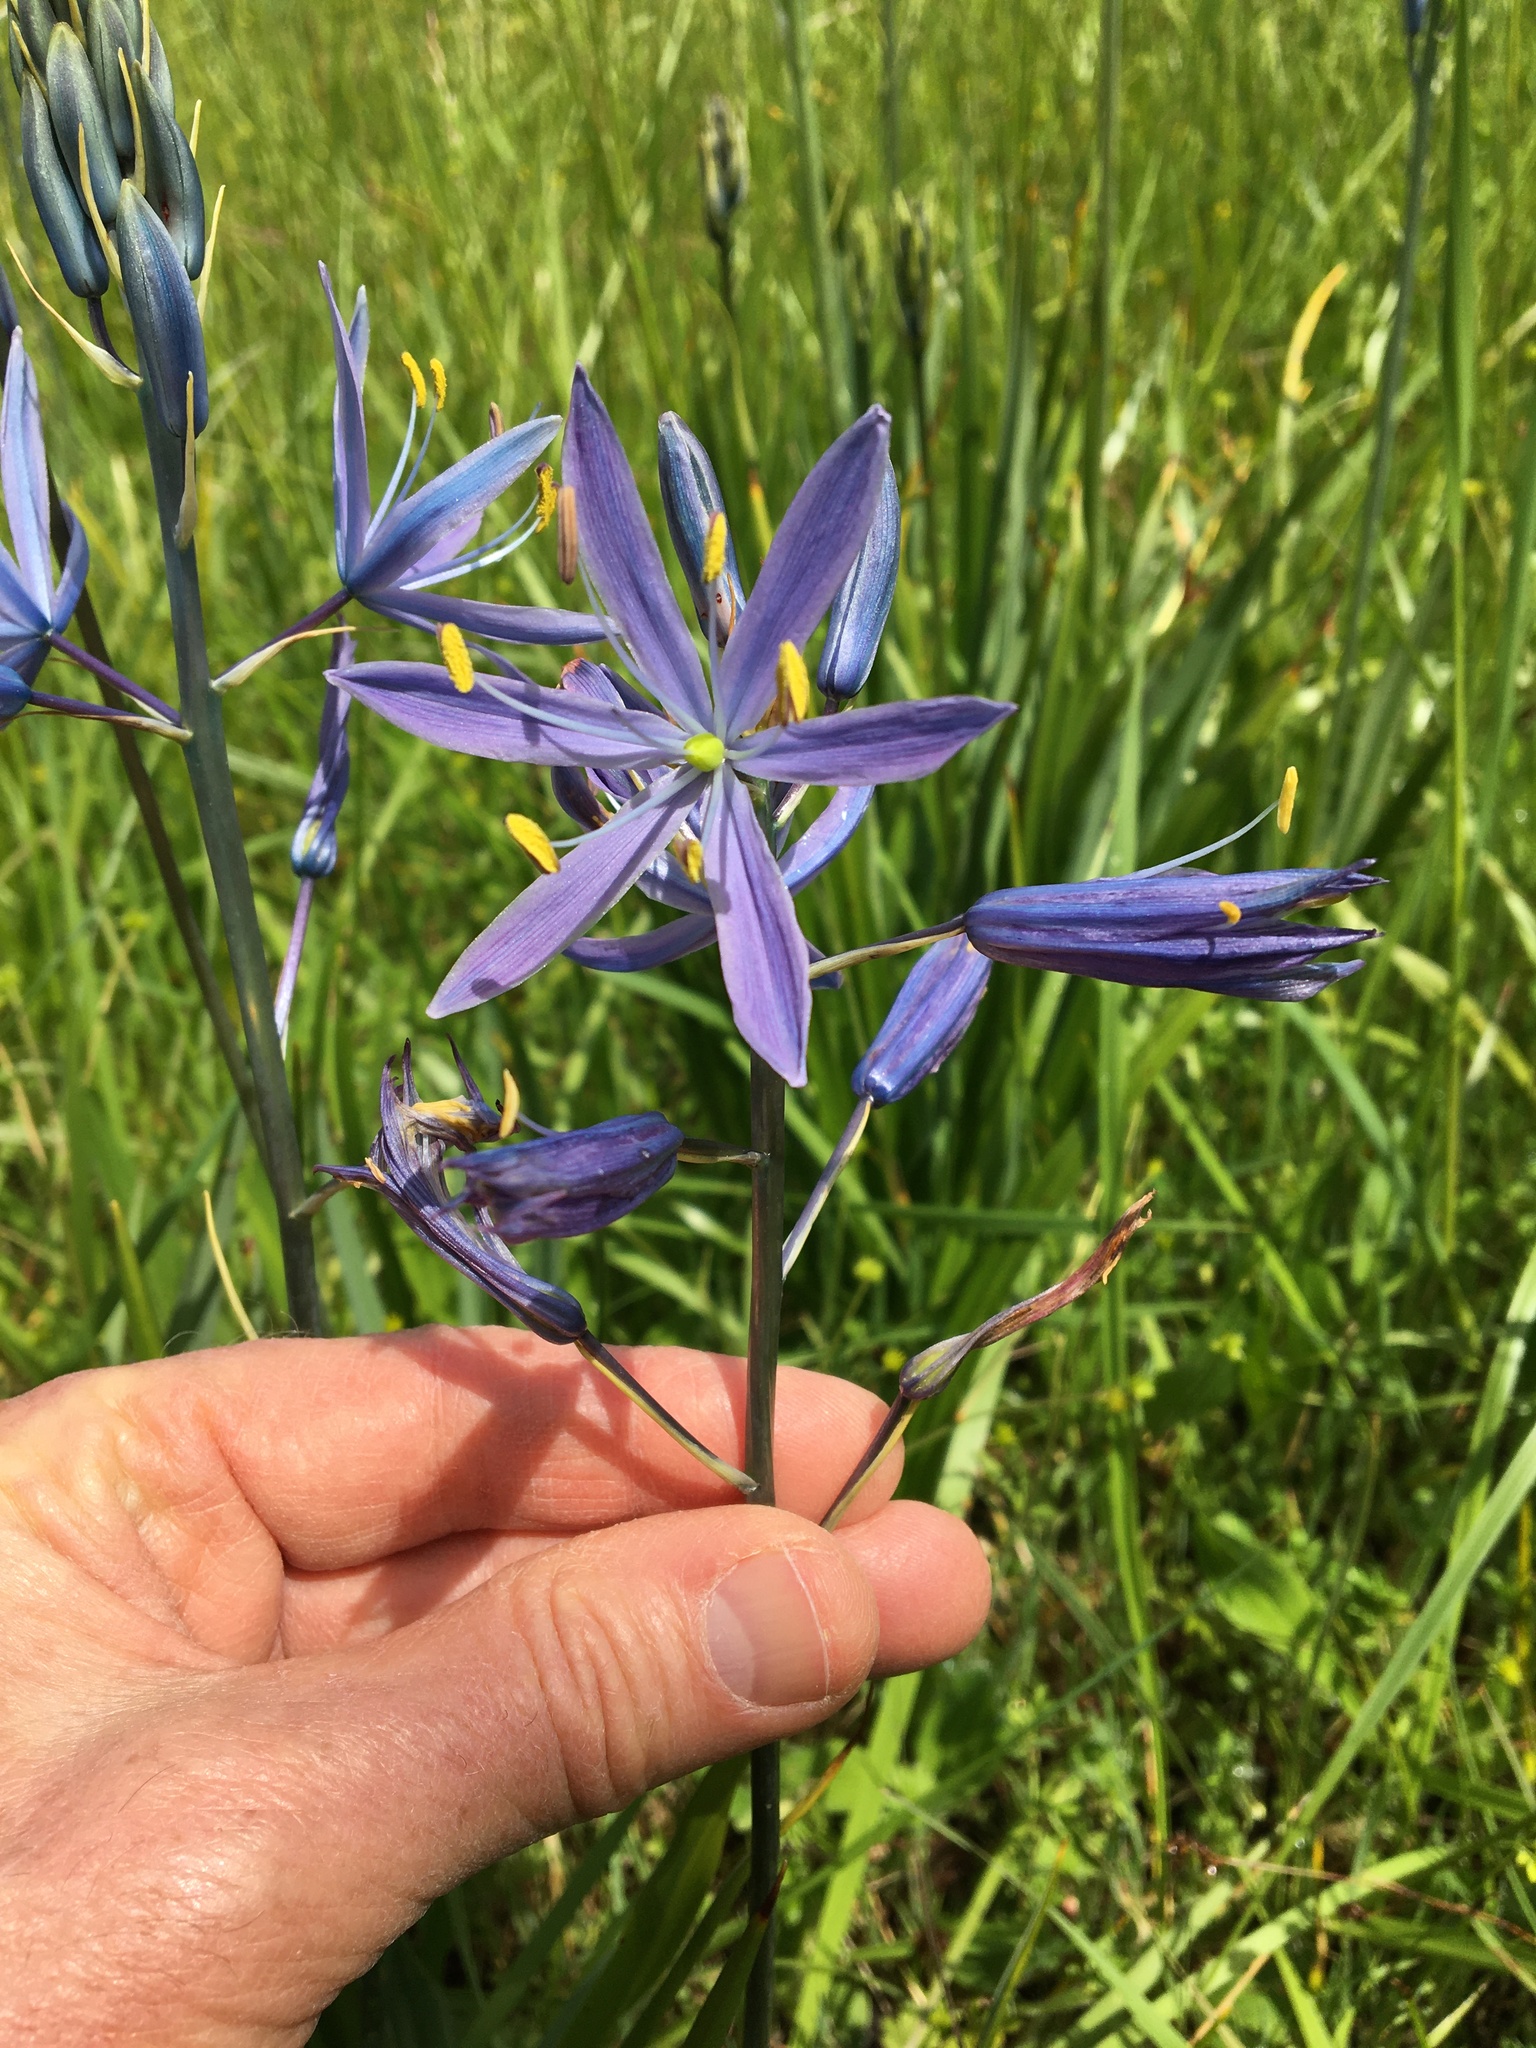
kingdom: Plantae
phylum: Tracheophyta
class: Liliopsida
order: Asparagales
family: Asparagaceae
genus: Camassia
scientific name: Camassia leichtlinii
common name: Leichtlin's camas
